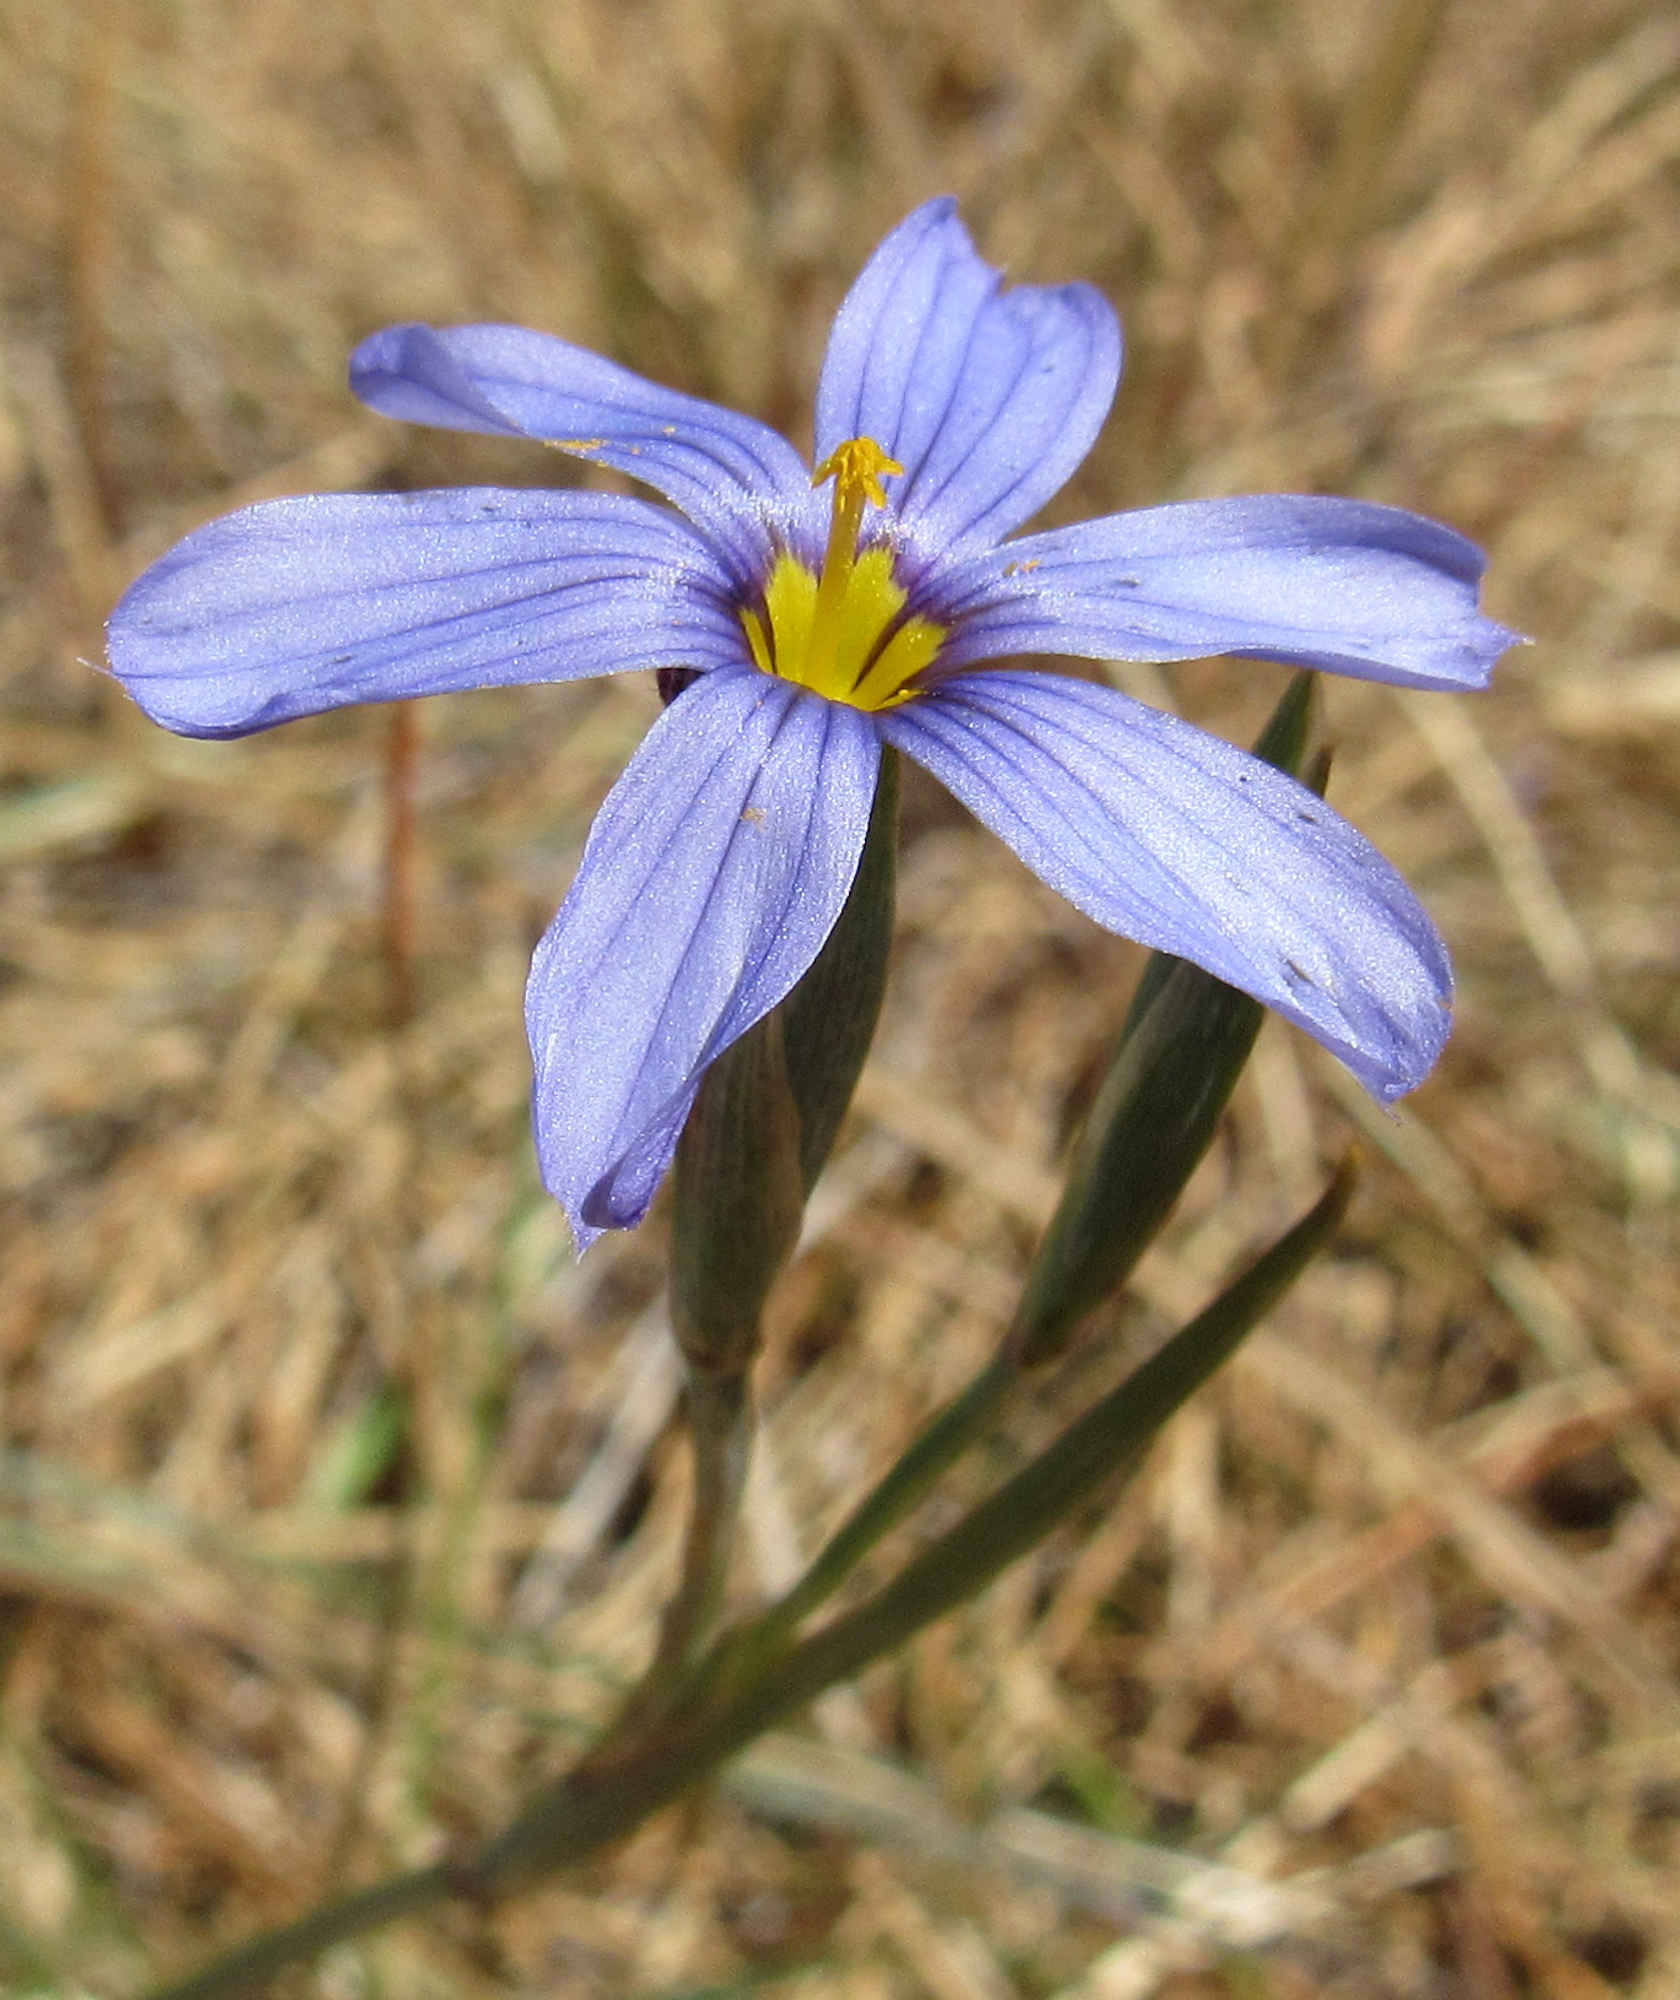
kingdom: Plantae
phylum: Tracheophyta
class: Liliopsida
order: Asparagales
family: Iridaceae
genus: Sisyrinchium
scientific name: Sisyrinchium funereum
